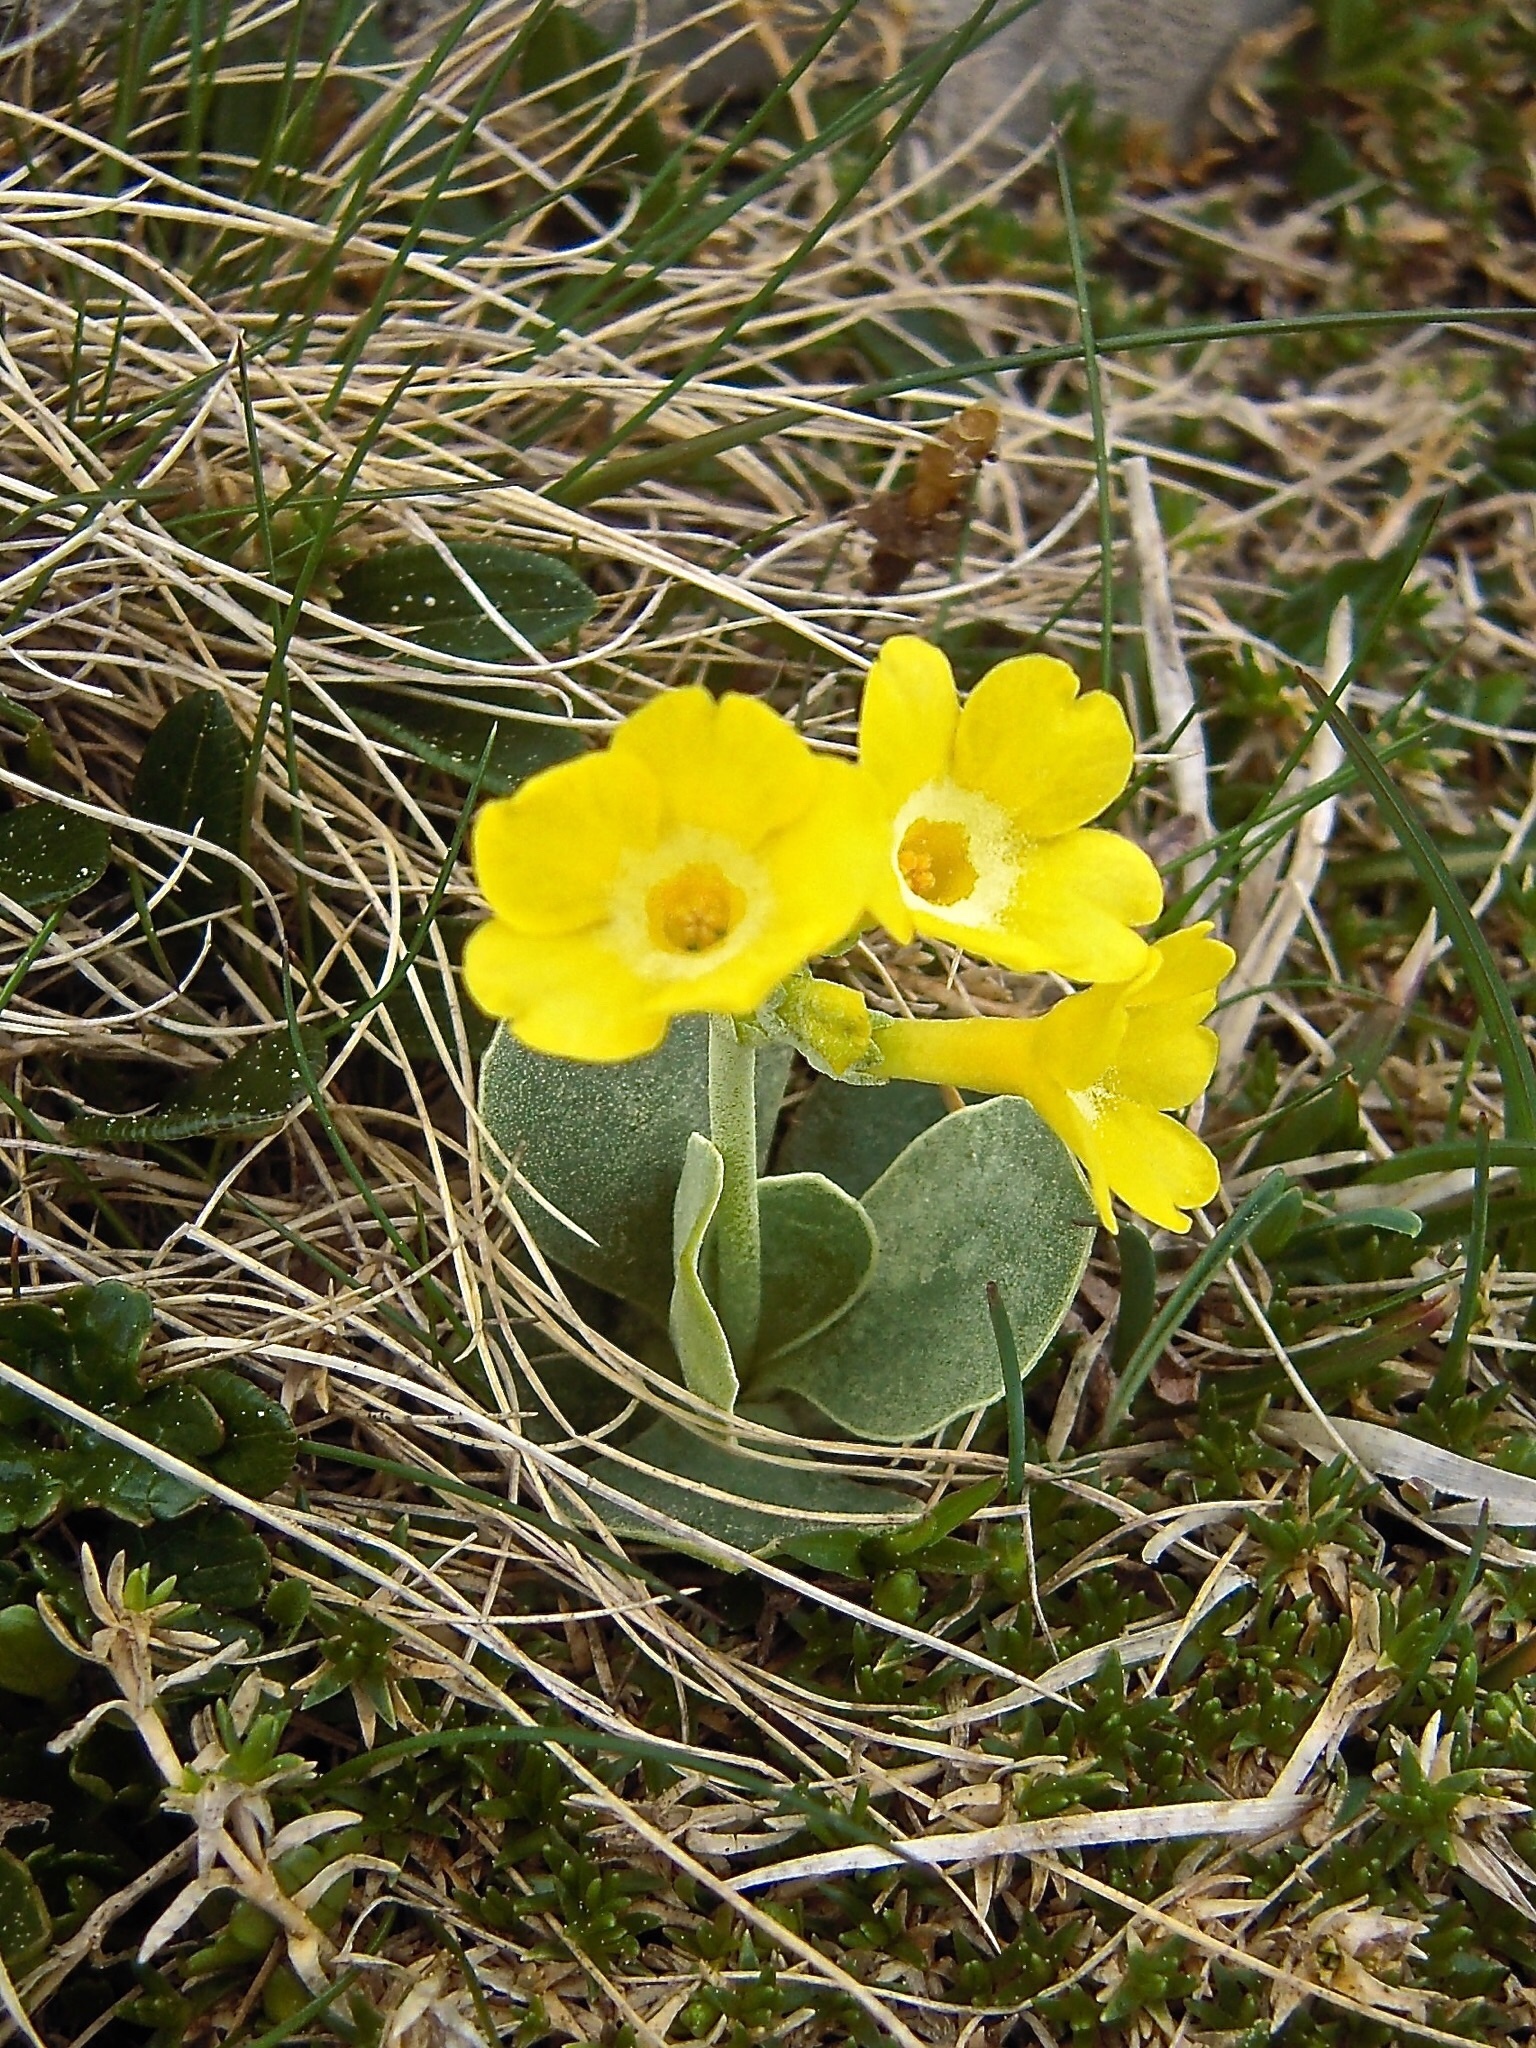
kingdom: Plantae
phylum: Tracheophyta
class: Magnoliopsida
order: Ericales
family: Primulaceae
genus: Primula
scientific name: Primula auricula
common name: Auricula
